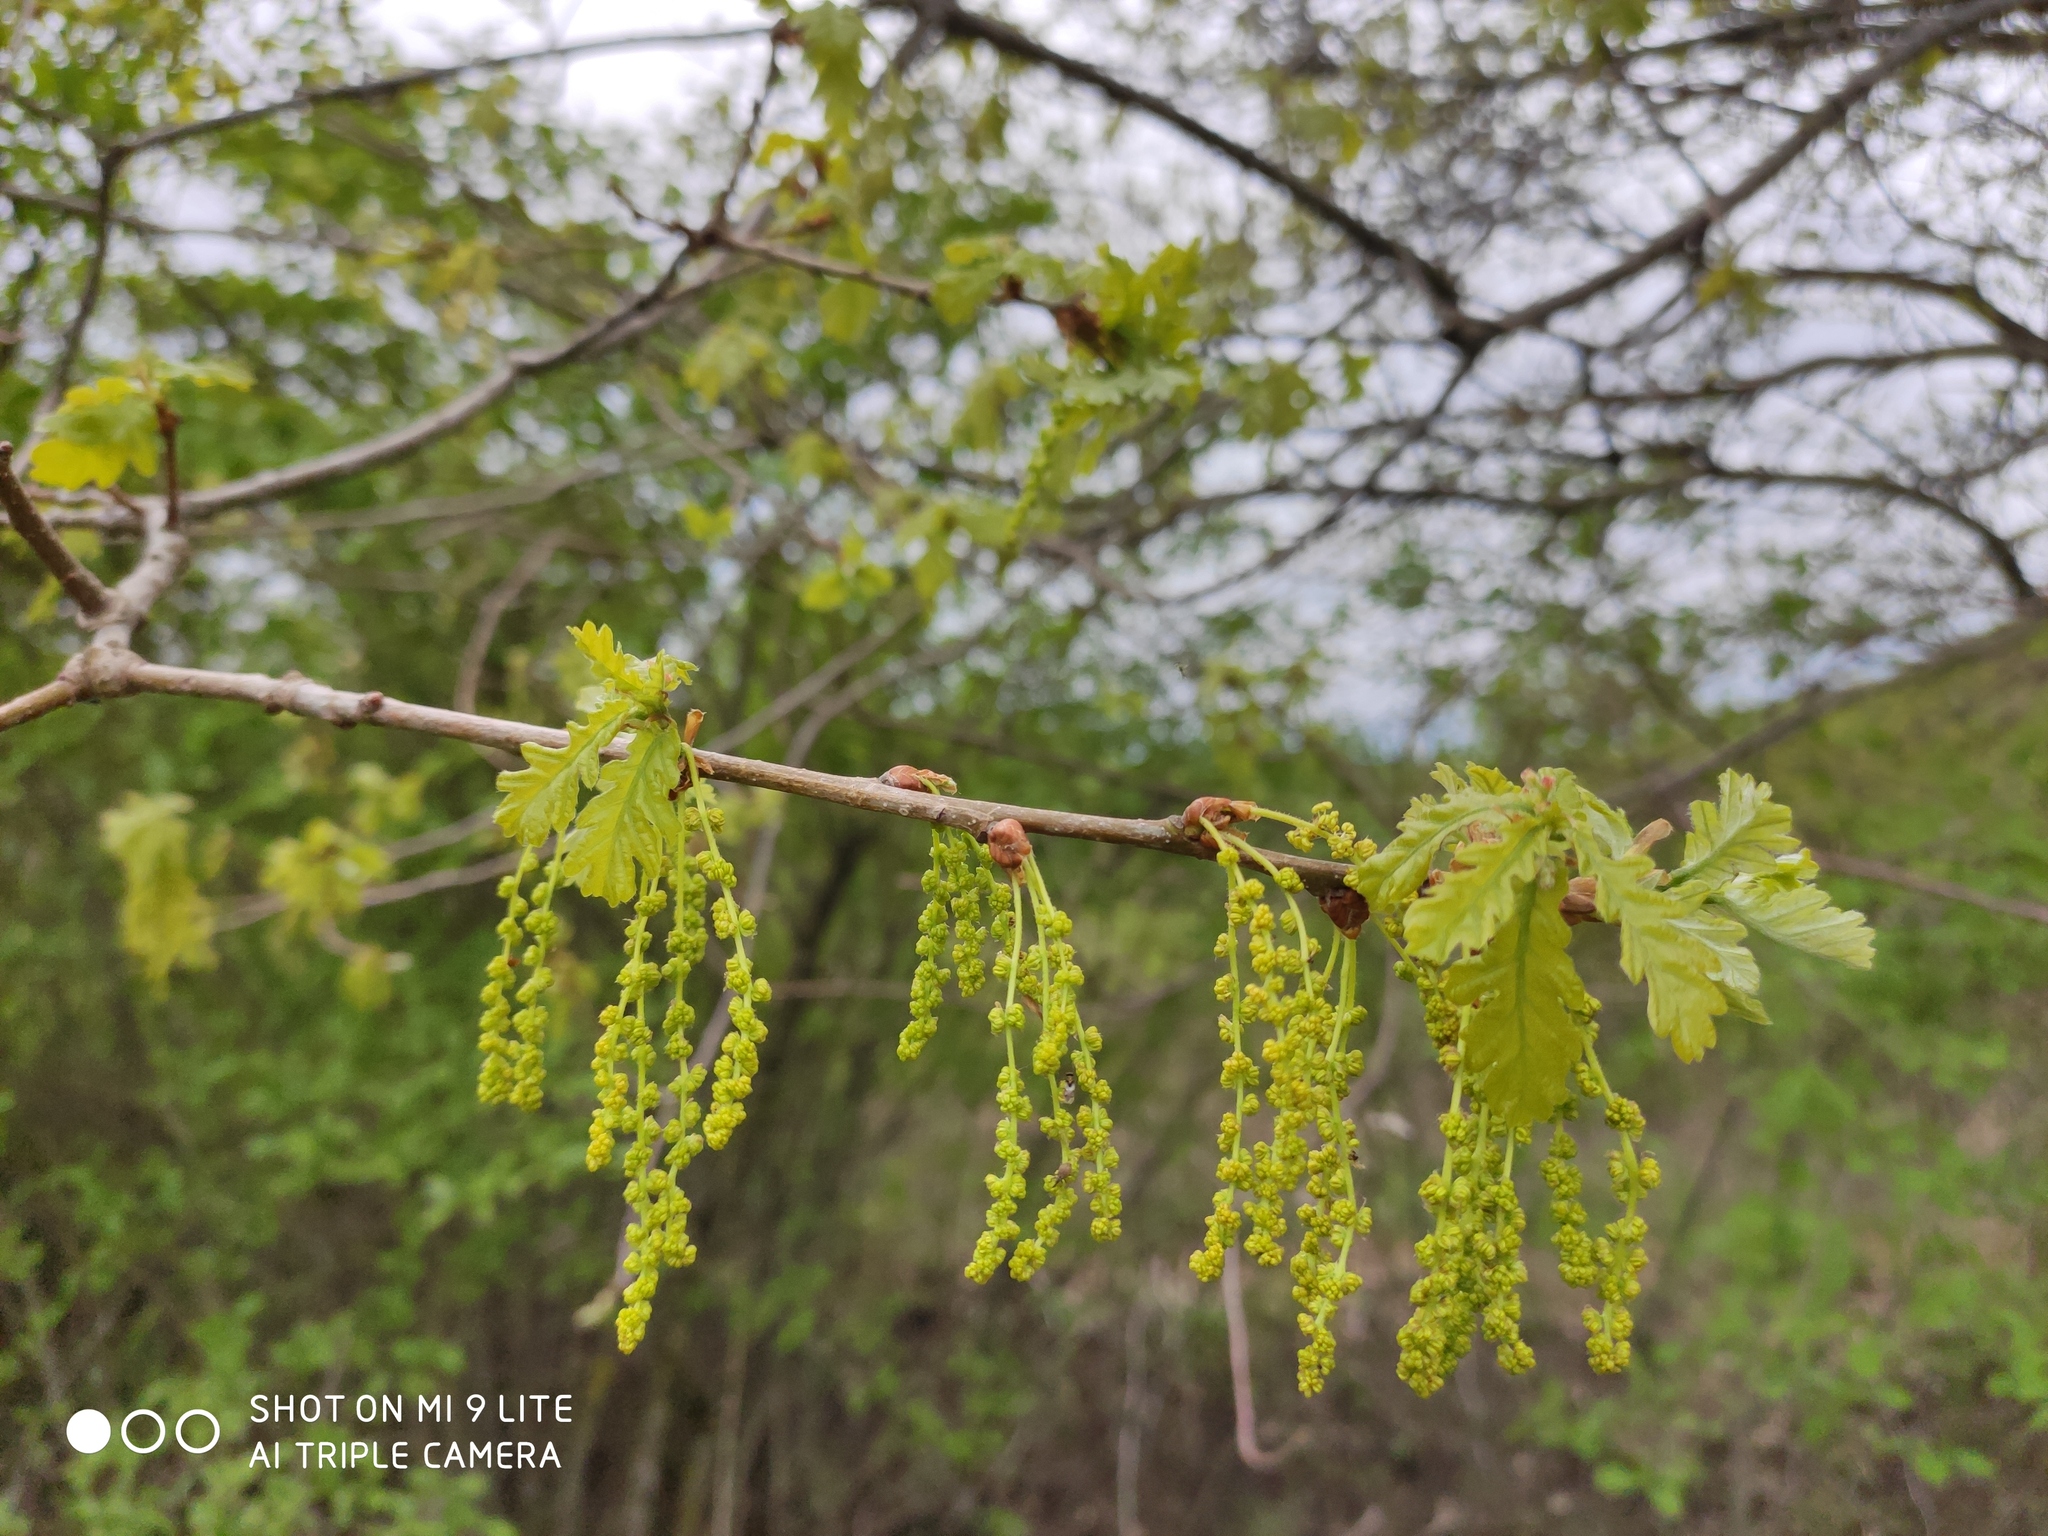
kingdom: Plantae
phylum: Tracheophyta
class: Magnoliopsida
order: Fagales
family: Fagaceae
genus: Quercus
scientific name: Quercus robur
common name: Pedunculate oak
